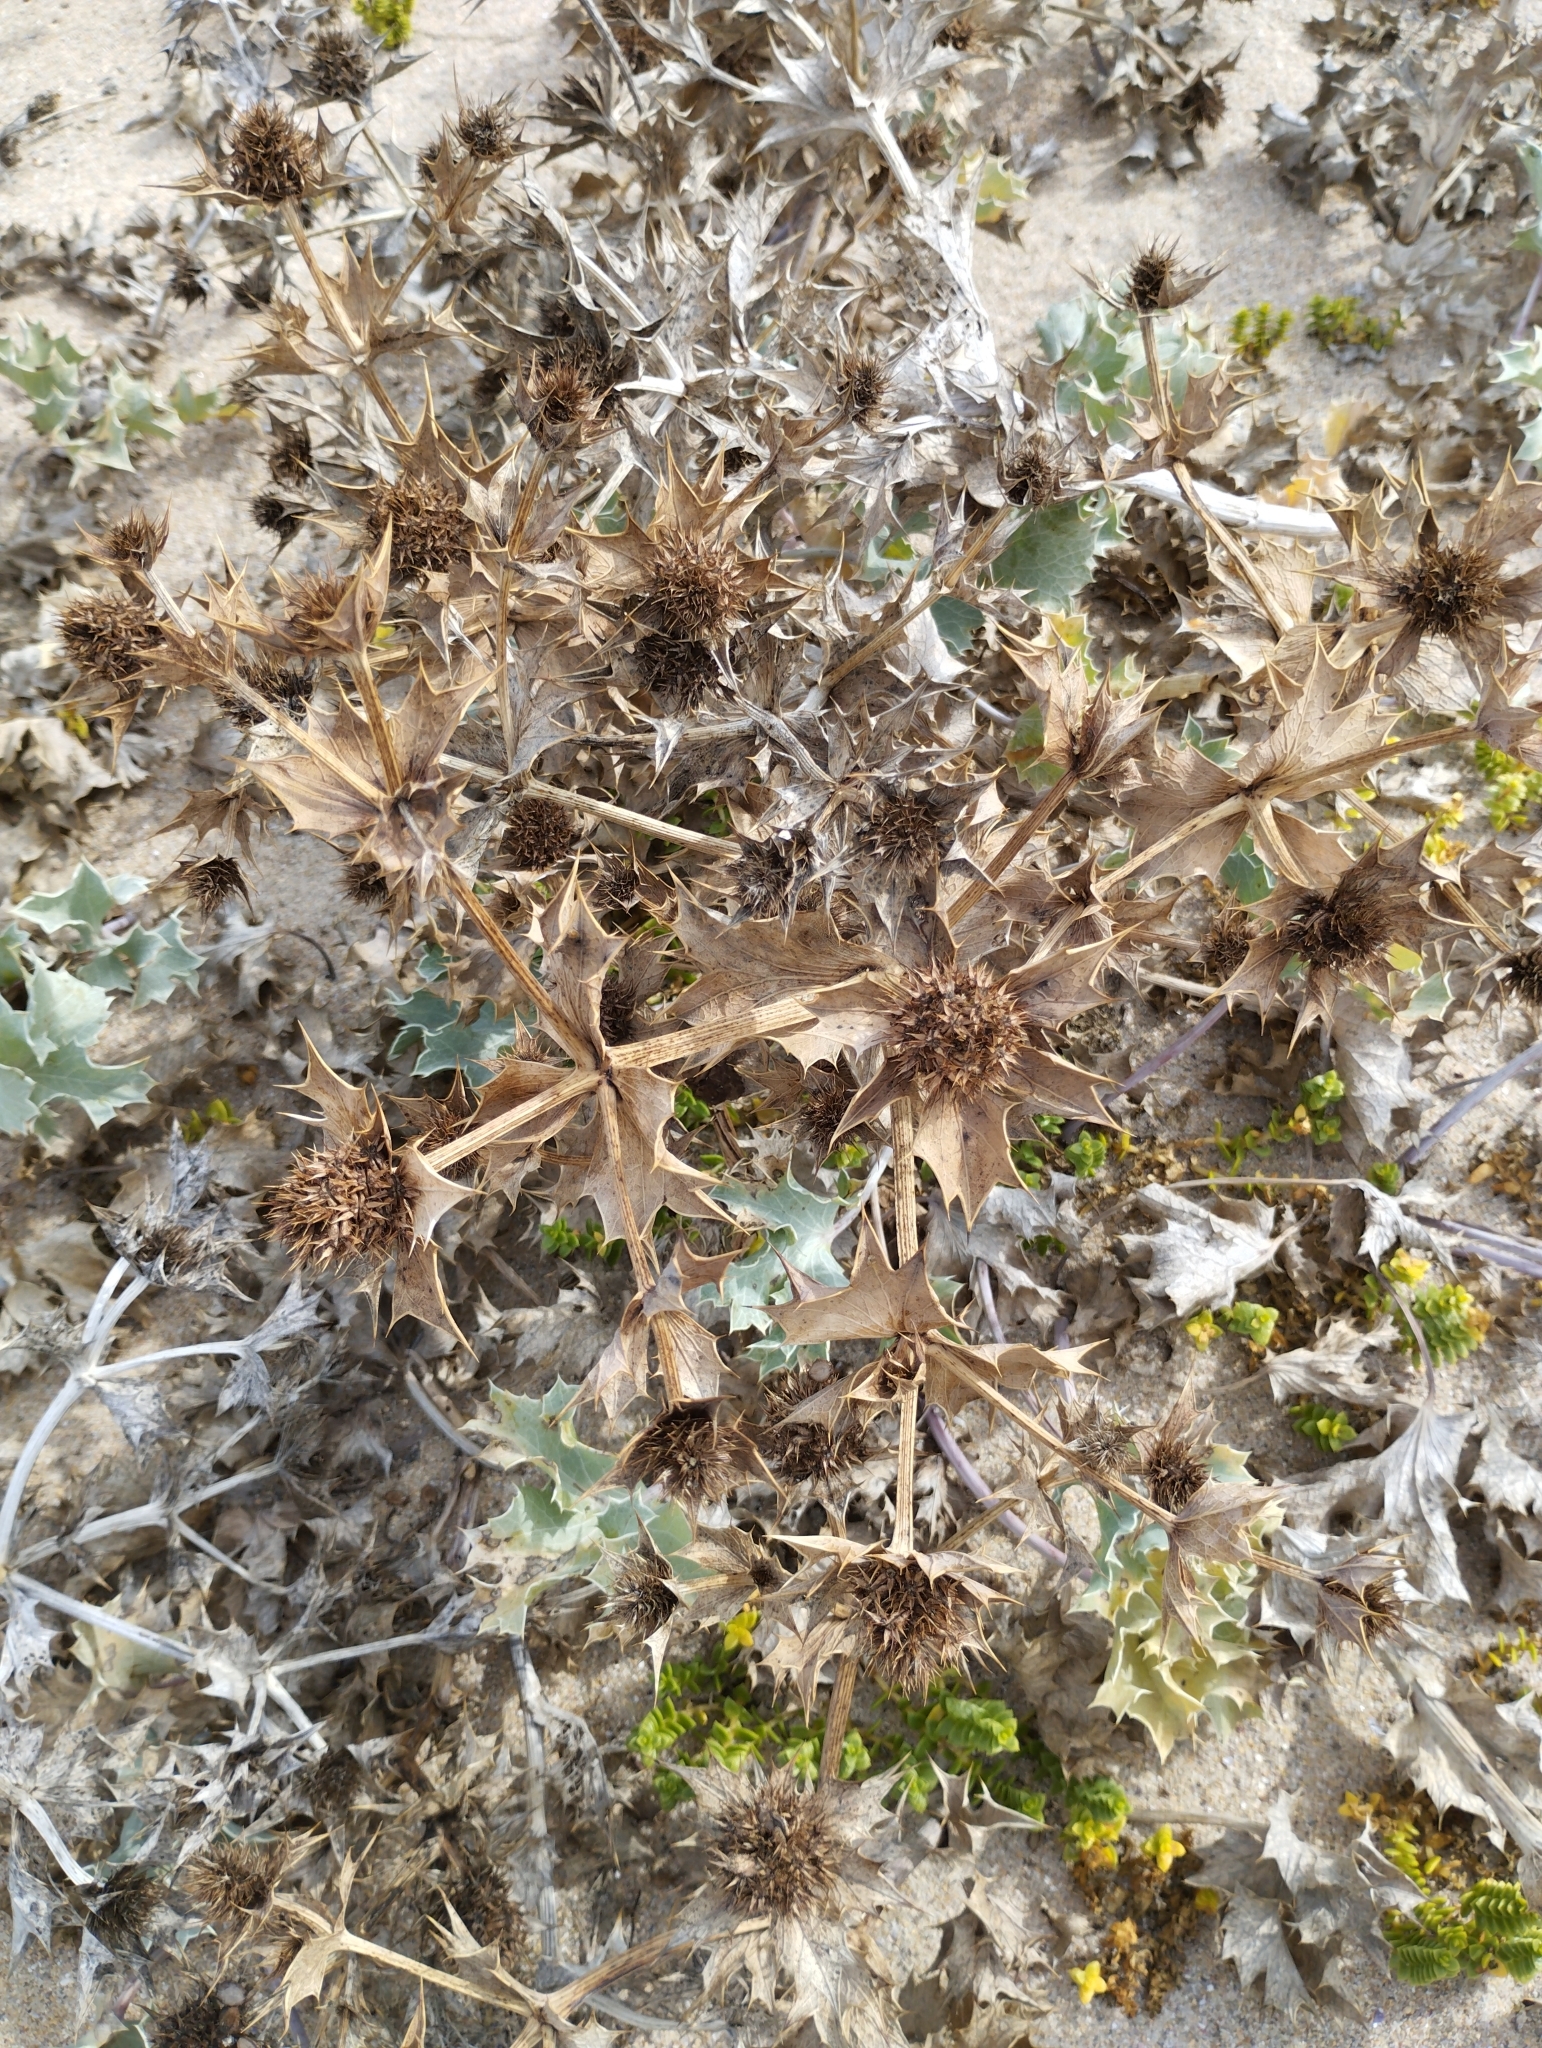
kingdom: Plantae
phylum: Tracheophyta
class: Magnoliopsida
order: Apiales
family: Apiaceae
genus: Eryngium
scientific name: Eryngium maritimum
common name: Sea-holly
